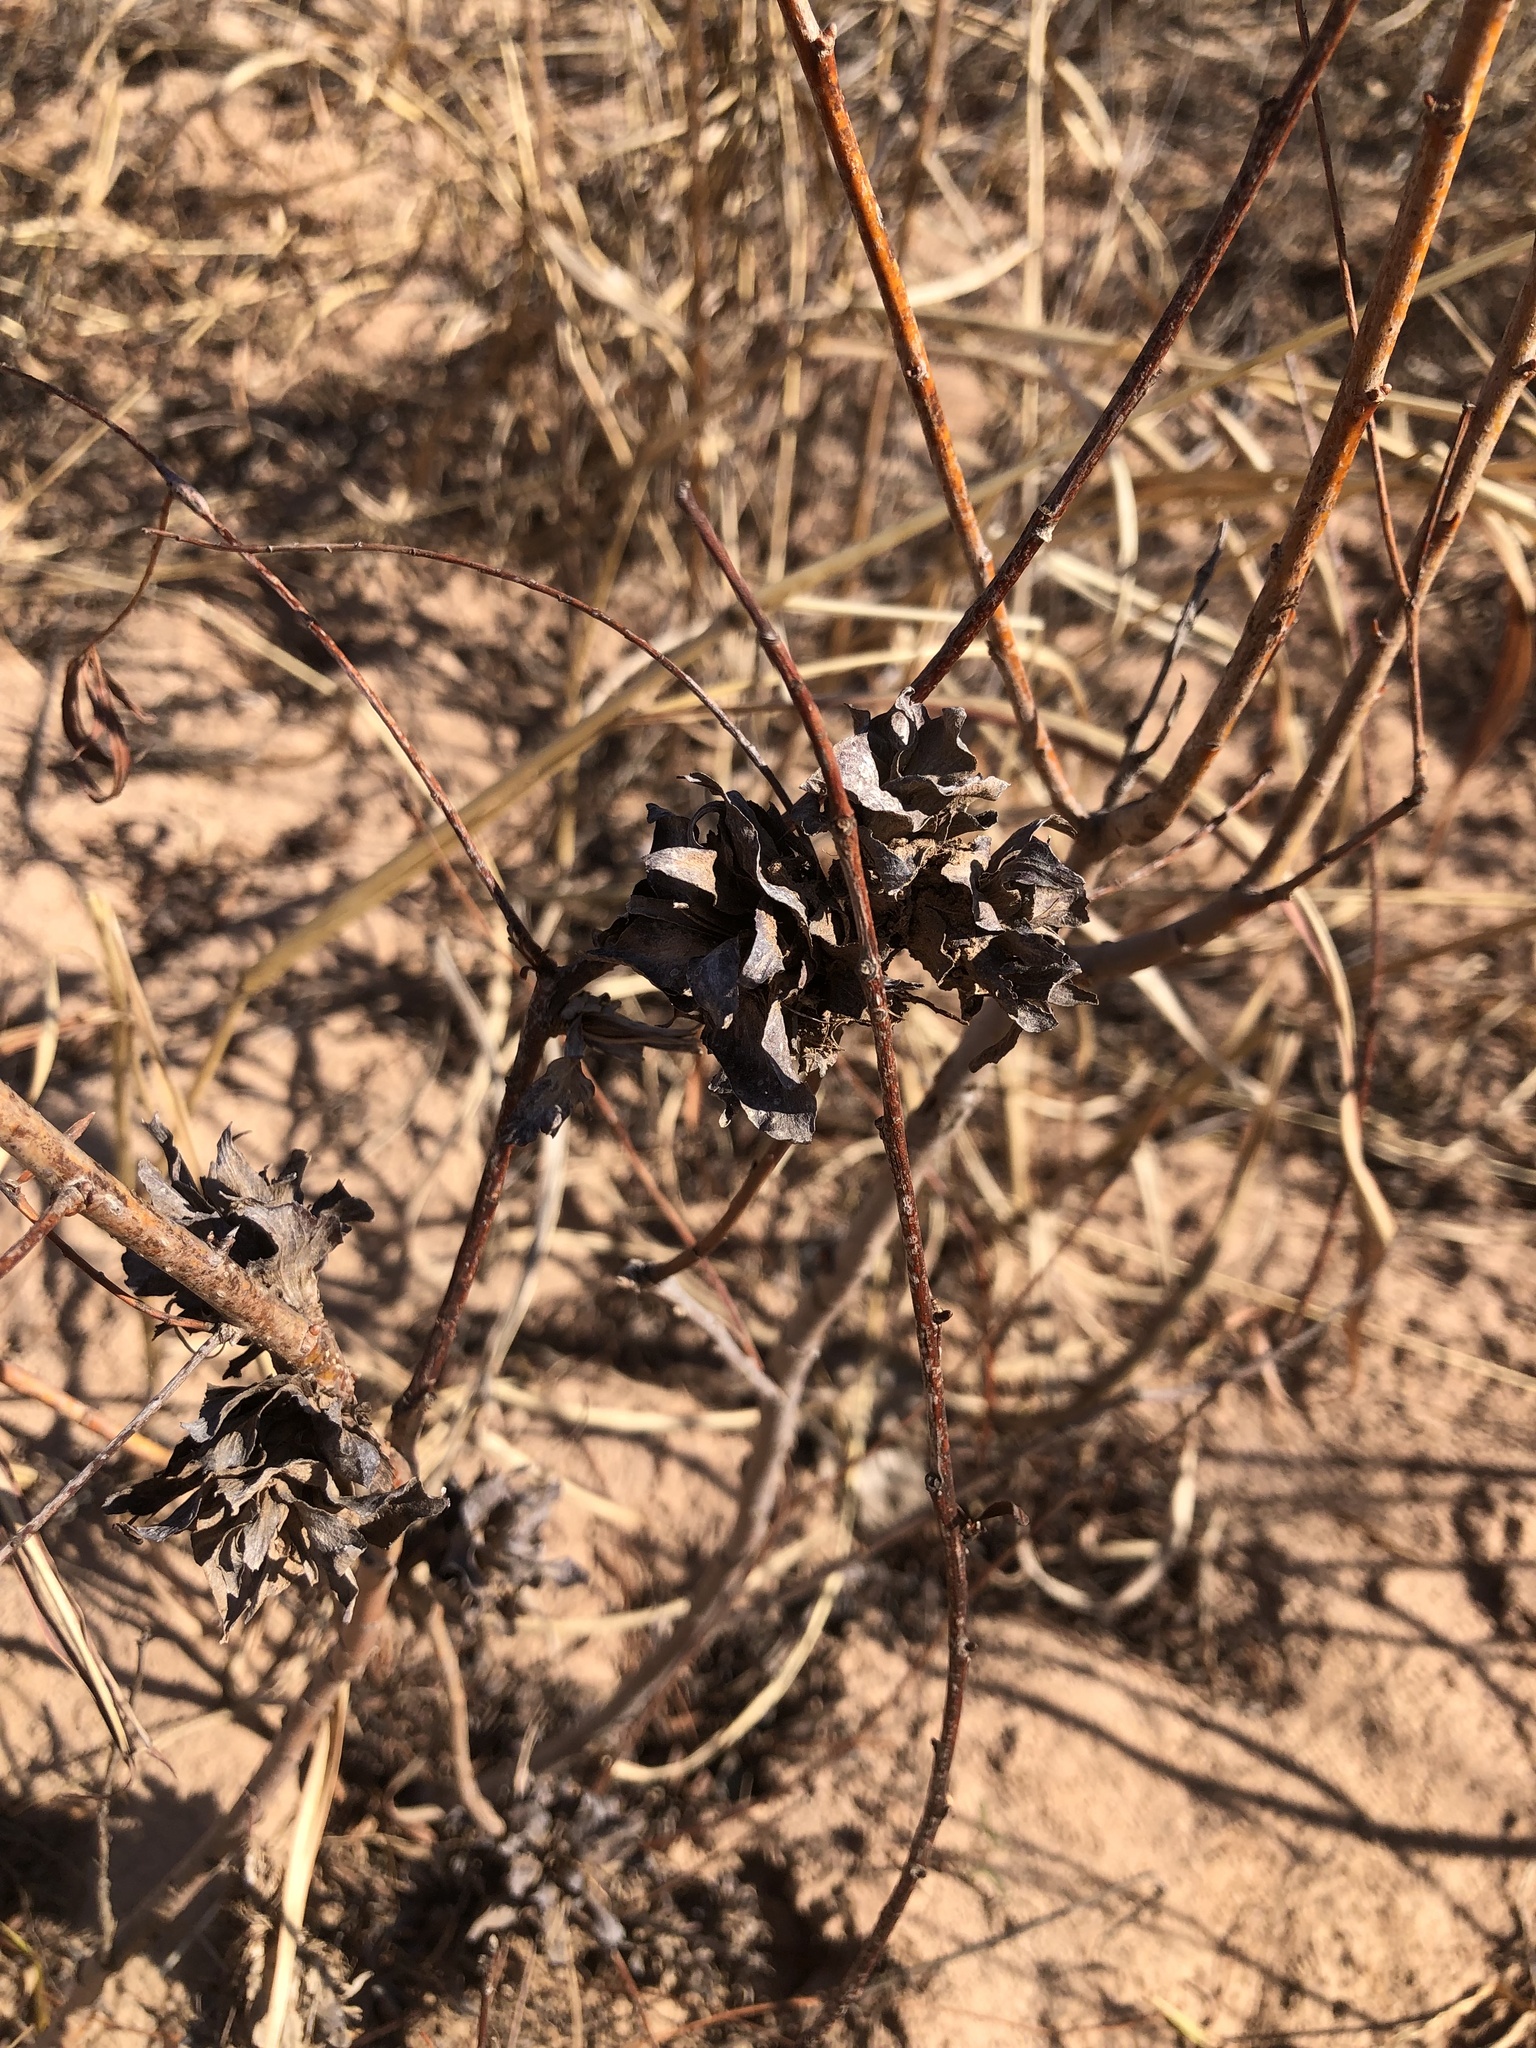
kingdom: Animalia
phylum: Arthropoda
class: Insecta
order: Diptera
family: Cecidomyiidae
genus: Rabdophaga
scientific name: Rabdophaga salicisbrassicoides
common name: Willow cabbagegall midge
